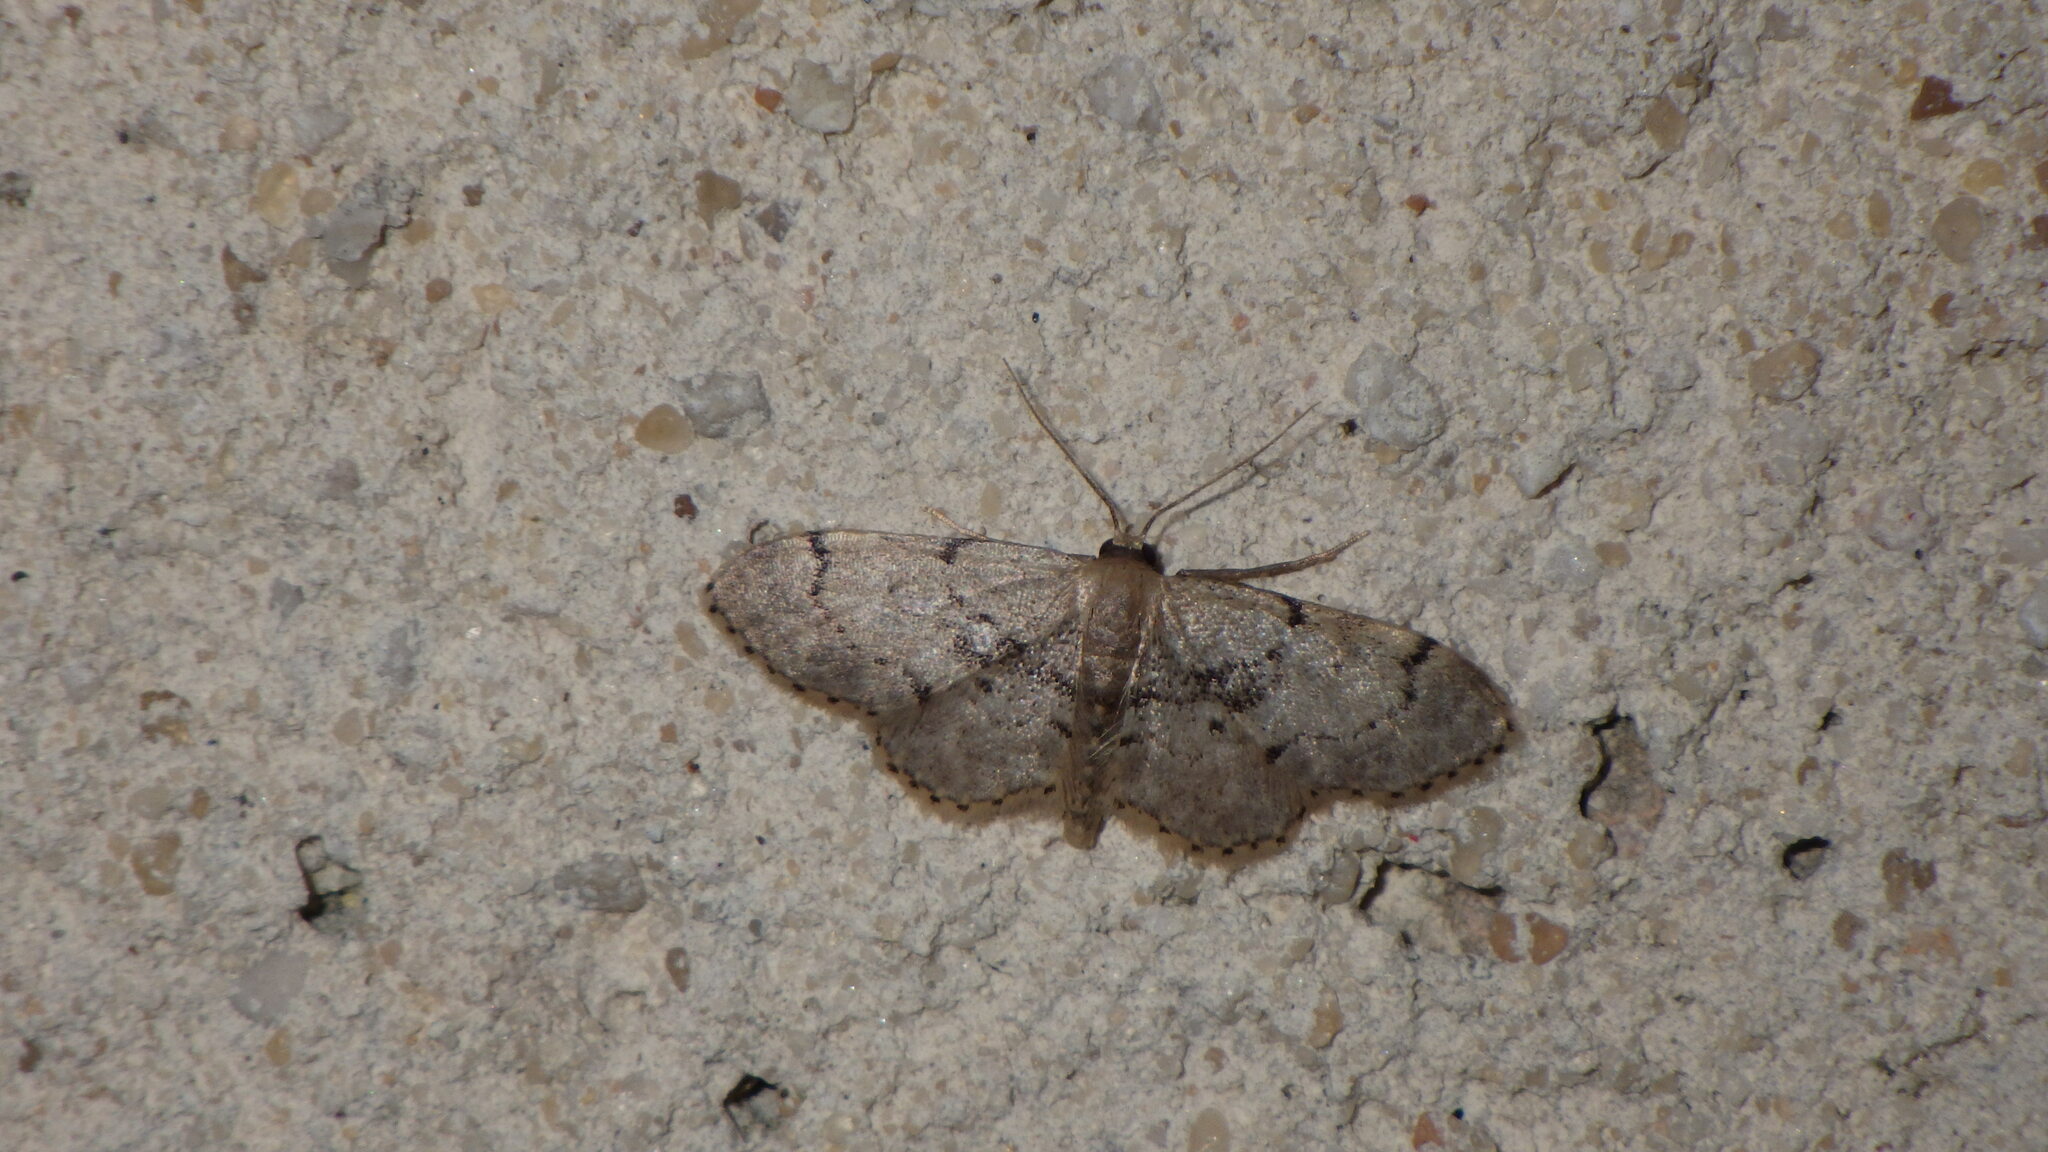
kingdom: Animalia
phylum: Arthropoda
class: Insecta
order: Lepidoptera
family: Geometridae
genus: Idaea
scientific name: Idaea laevigata
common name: Strange wave
